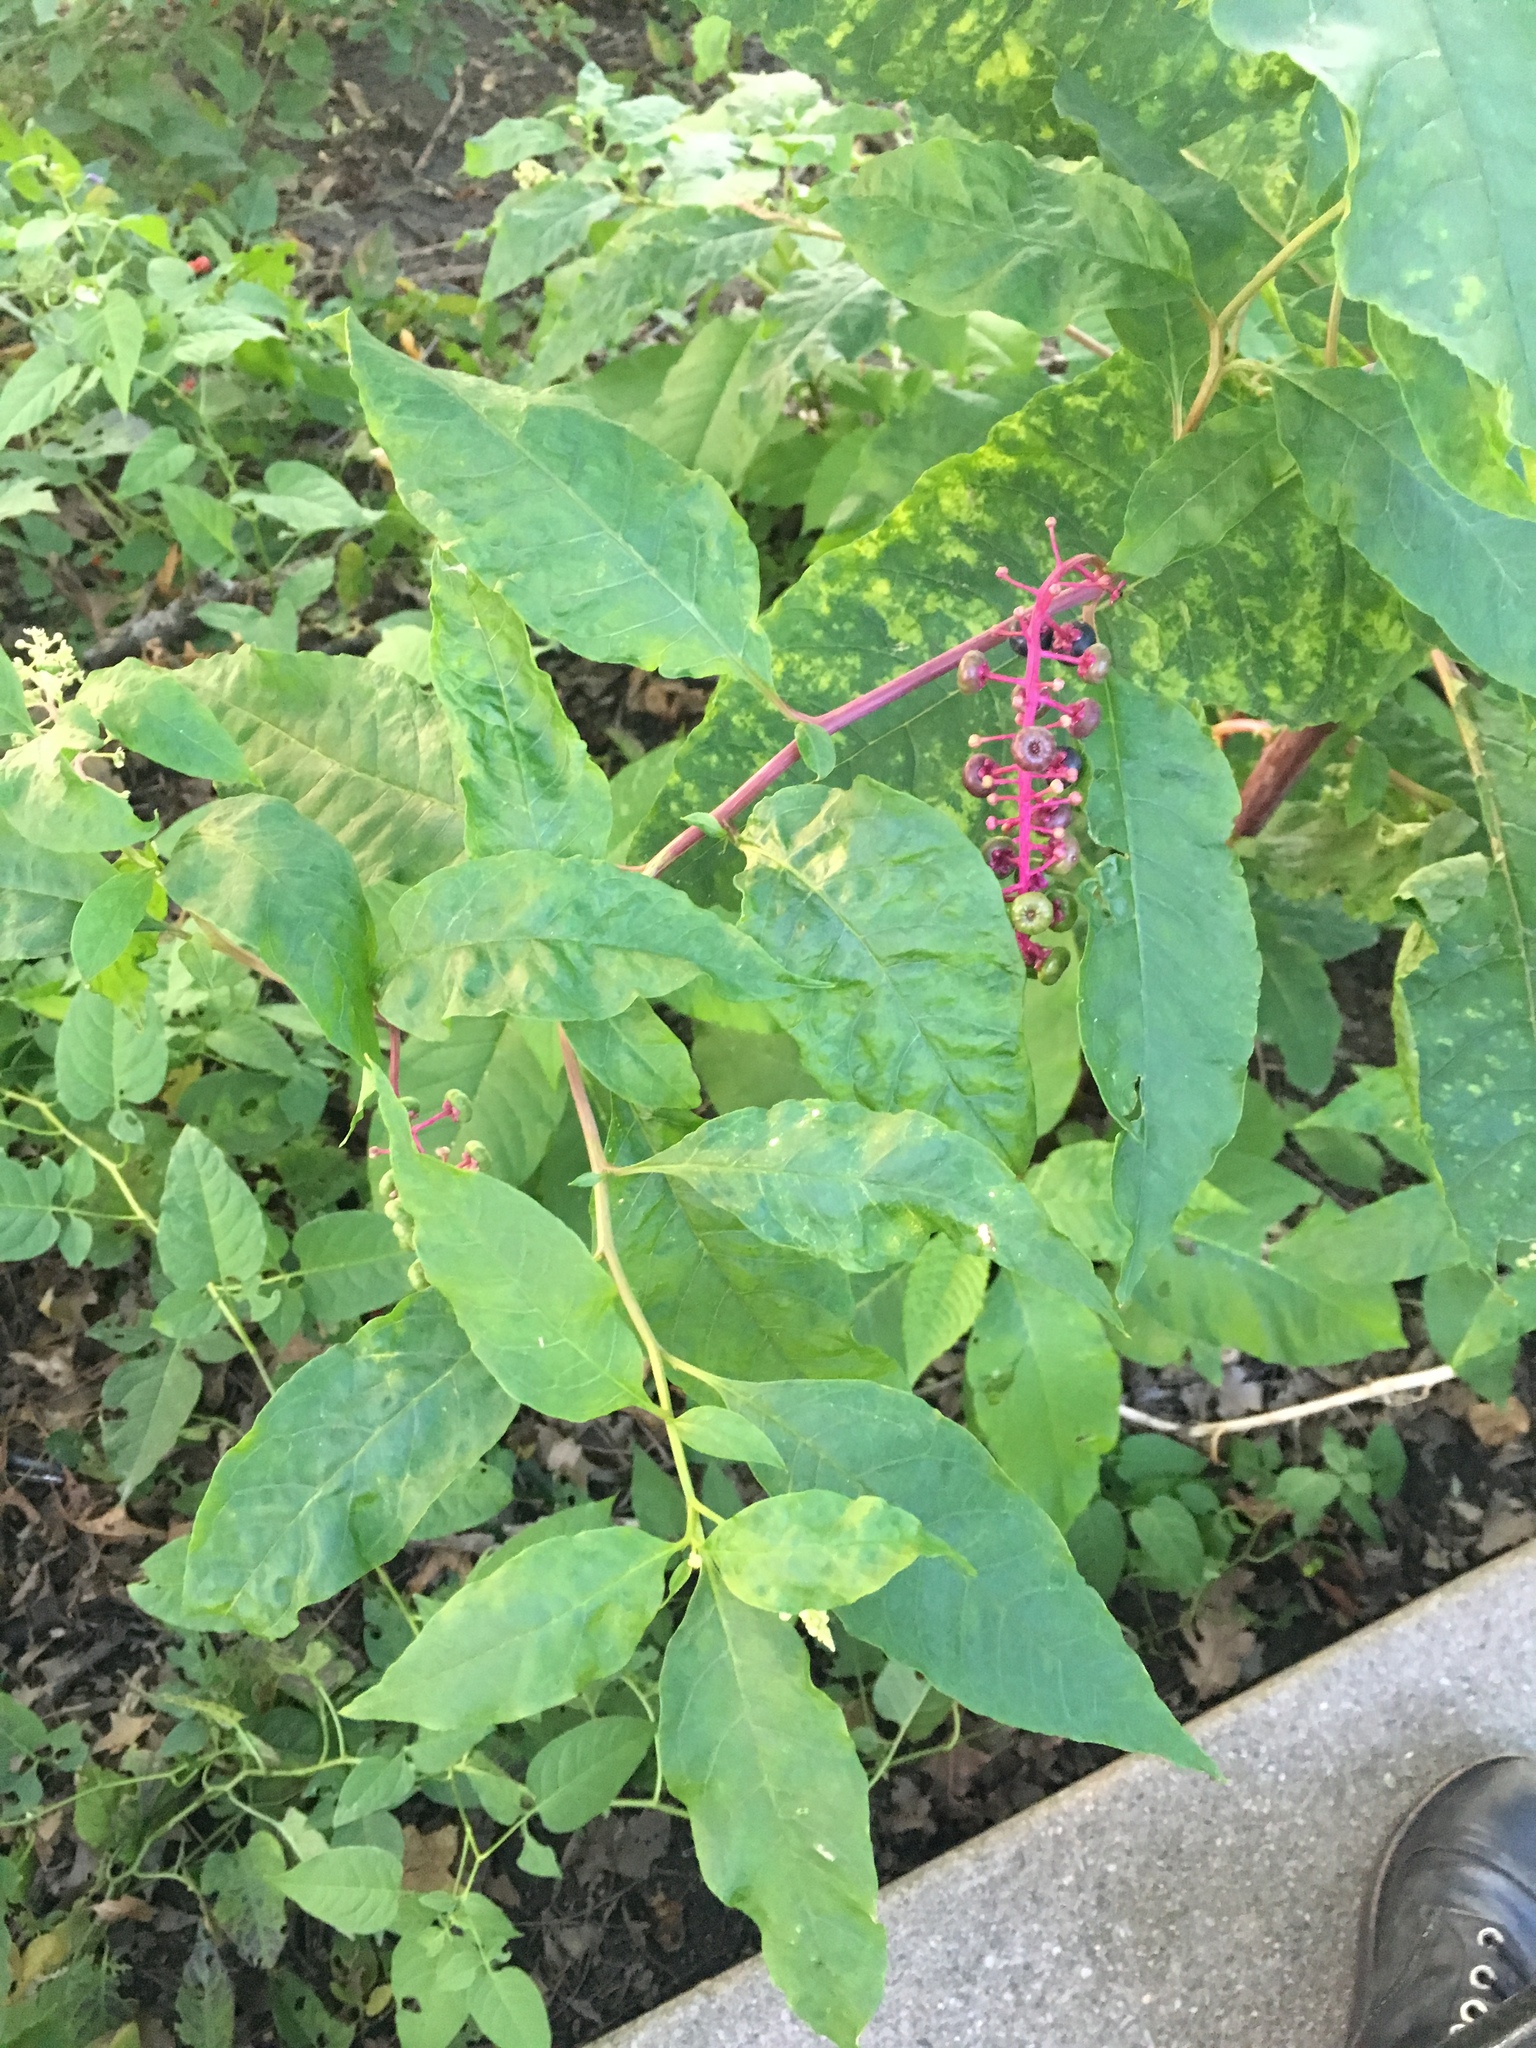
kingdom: Plantae
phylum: Tracheophyta
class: Magnoliopsida
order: Caryophyllales
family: Phytolaccaceae
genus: Phytolacca
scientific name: Phytolacca americana
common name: American pokeweed
